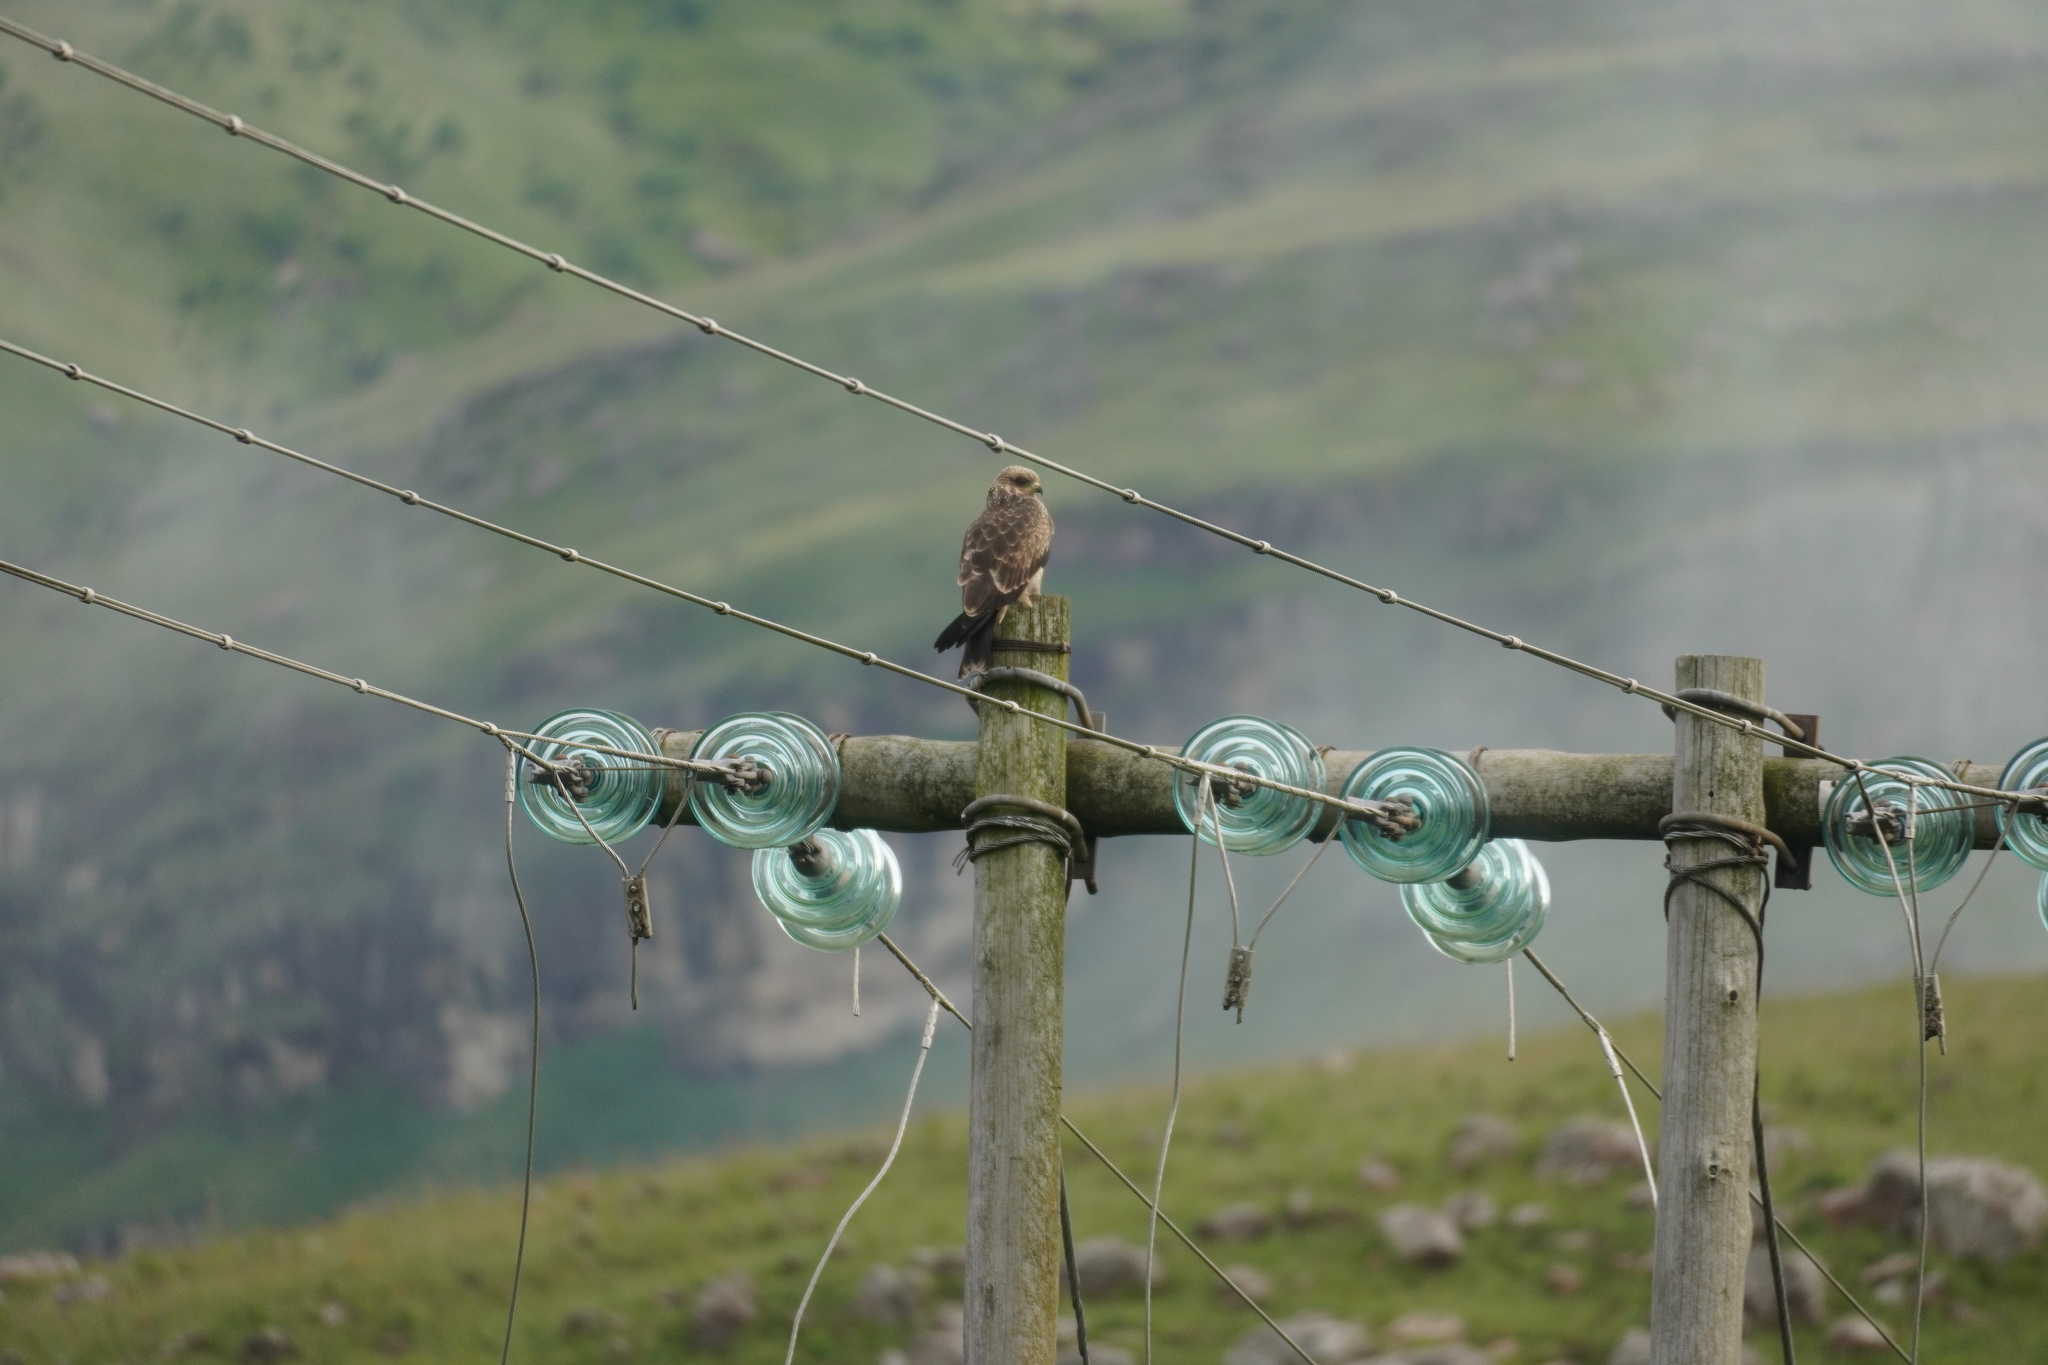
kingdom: Animalia
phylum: Chordata
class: Aves
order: Accipitriformes
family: Accipitridae
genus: Milvus
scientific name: Milvus migrans
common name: Black kite
